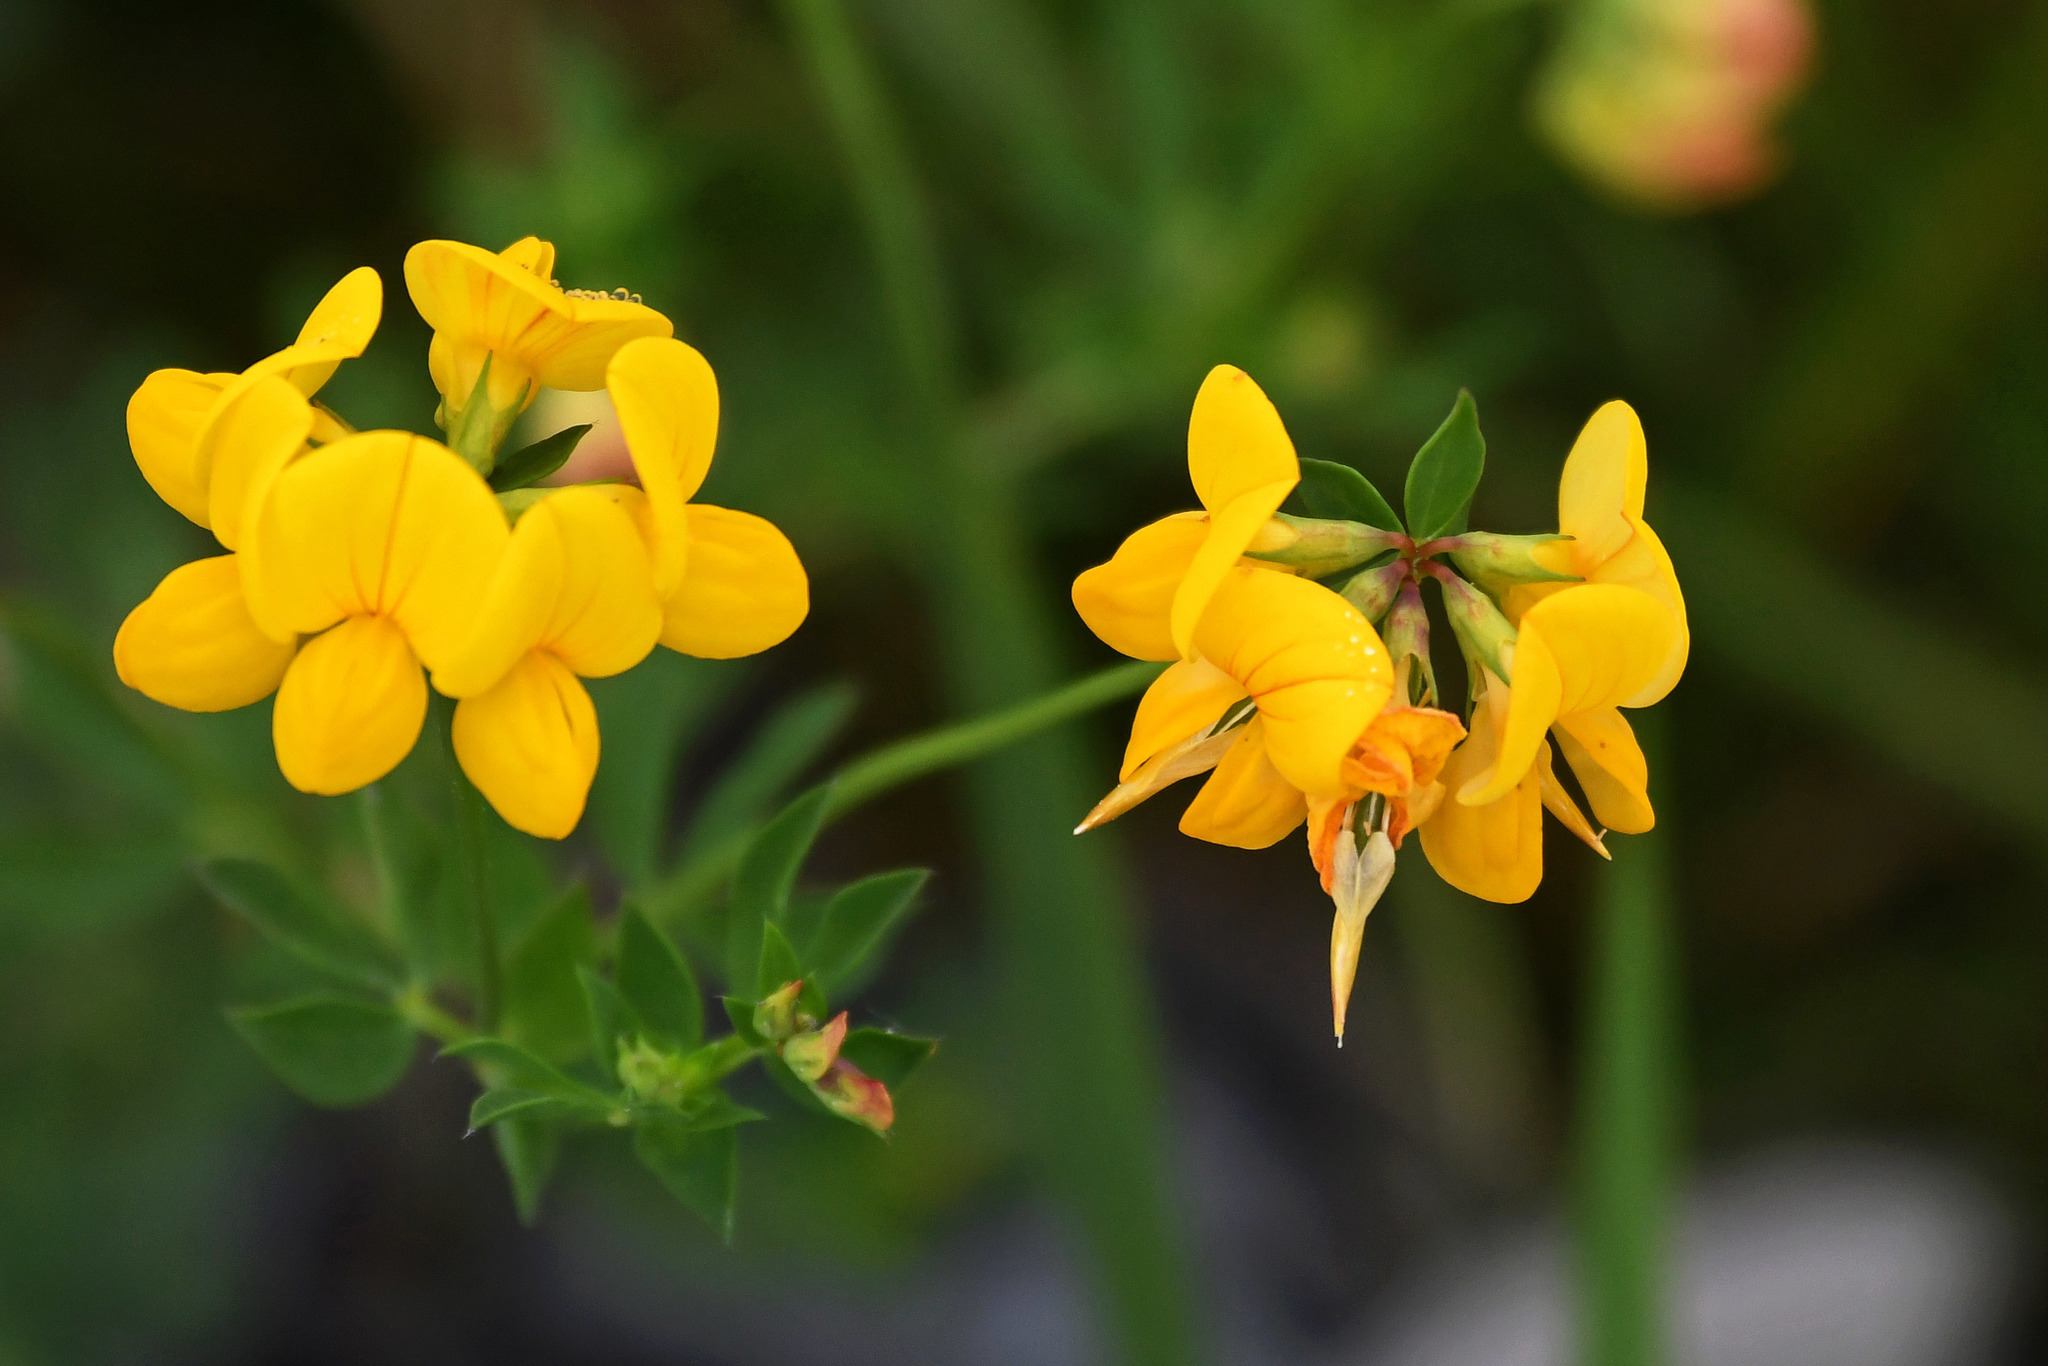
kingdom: Plantae
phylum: Tracheophyta
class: Magnoliopsida
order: Fabales
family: Fabaceae
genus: Lotus
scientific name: Lotus corniculatus
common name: Common bird's-foot-trefoil
